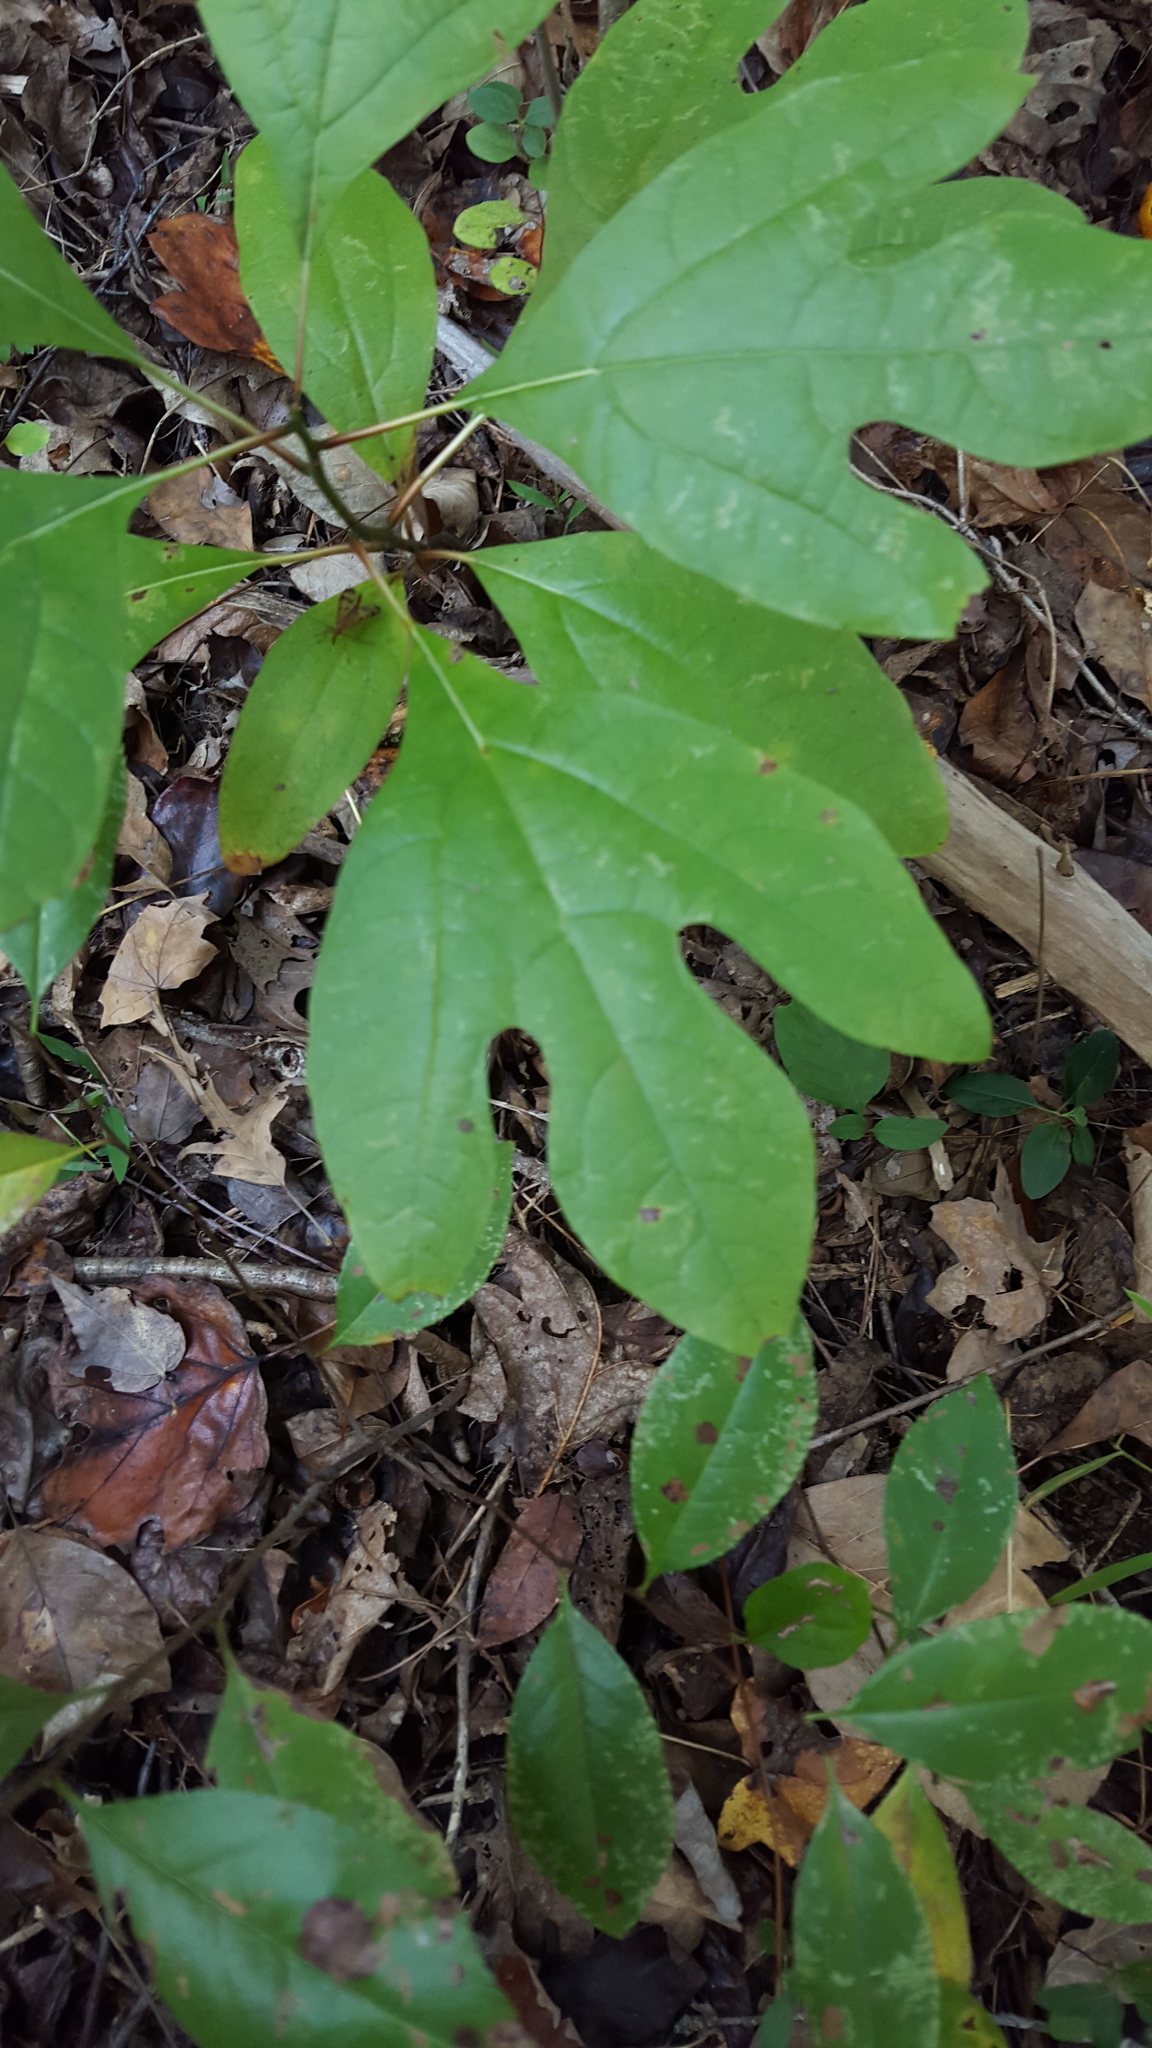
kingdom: Plantae
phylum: Tracheophyta
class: Magnoliopsida
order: Laurales
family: Lauraceae
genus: Sassafras
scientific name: Sassafras albidum
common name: Sassafras
